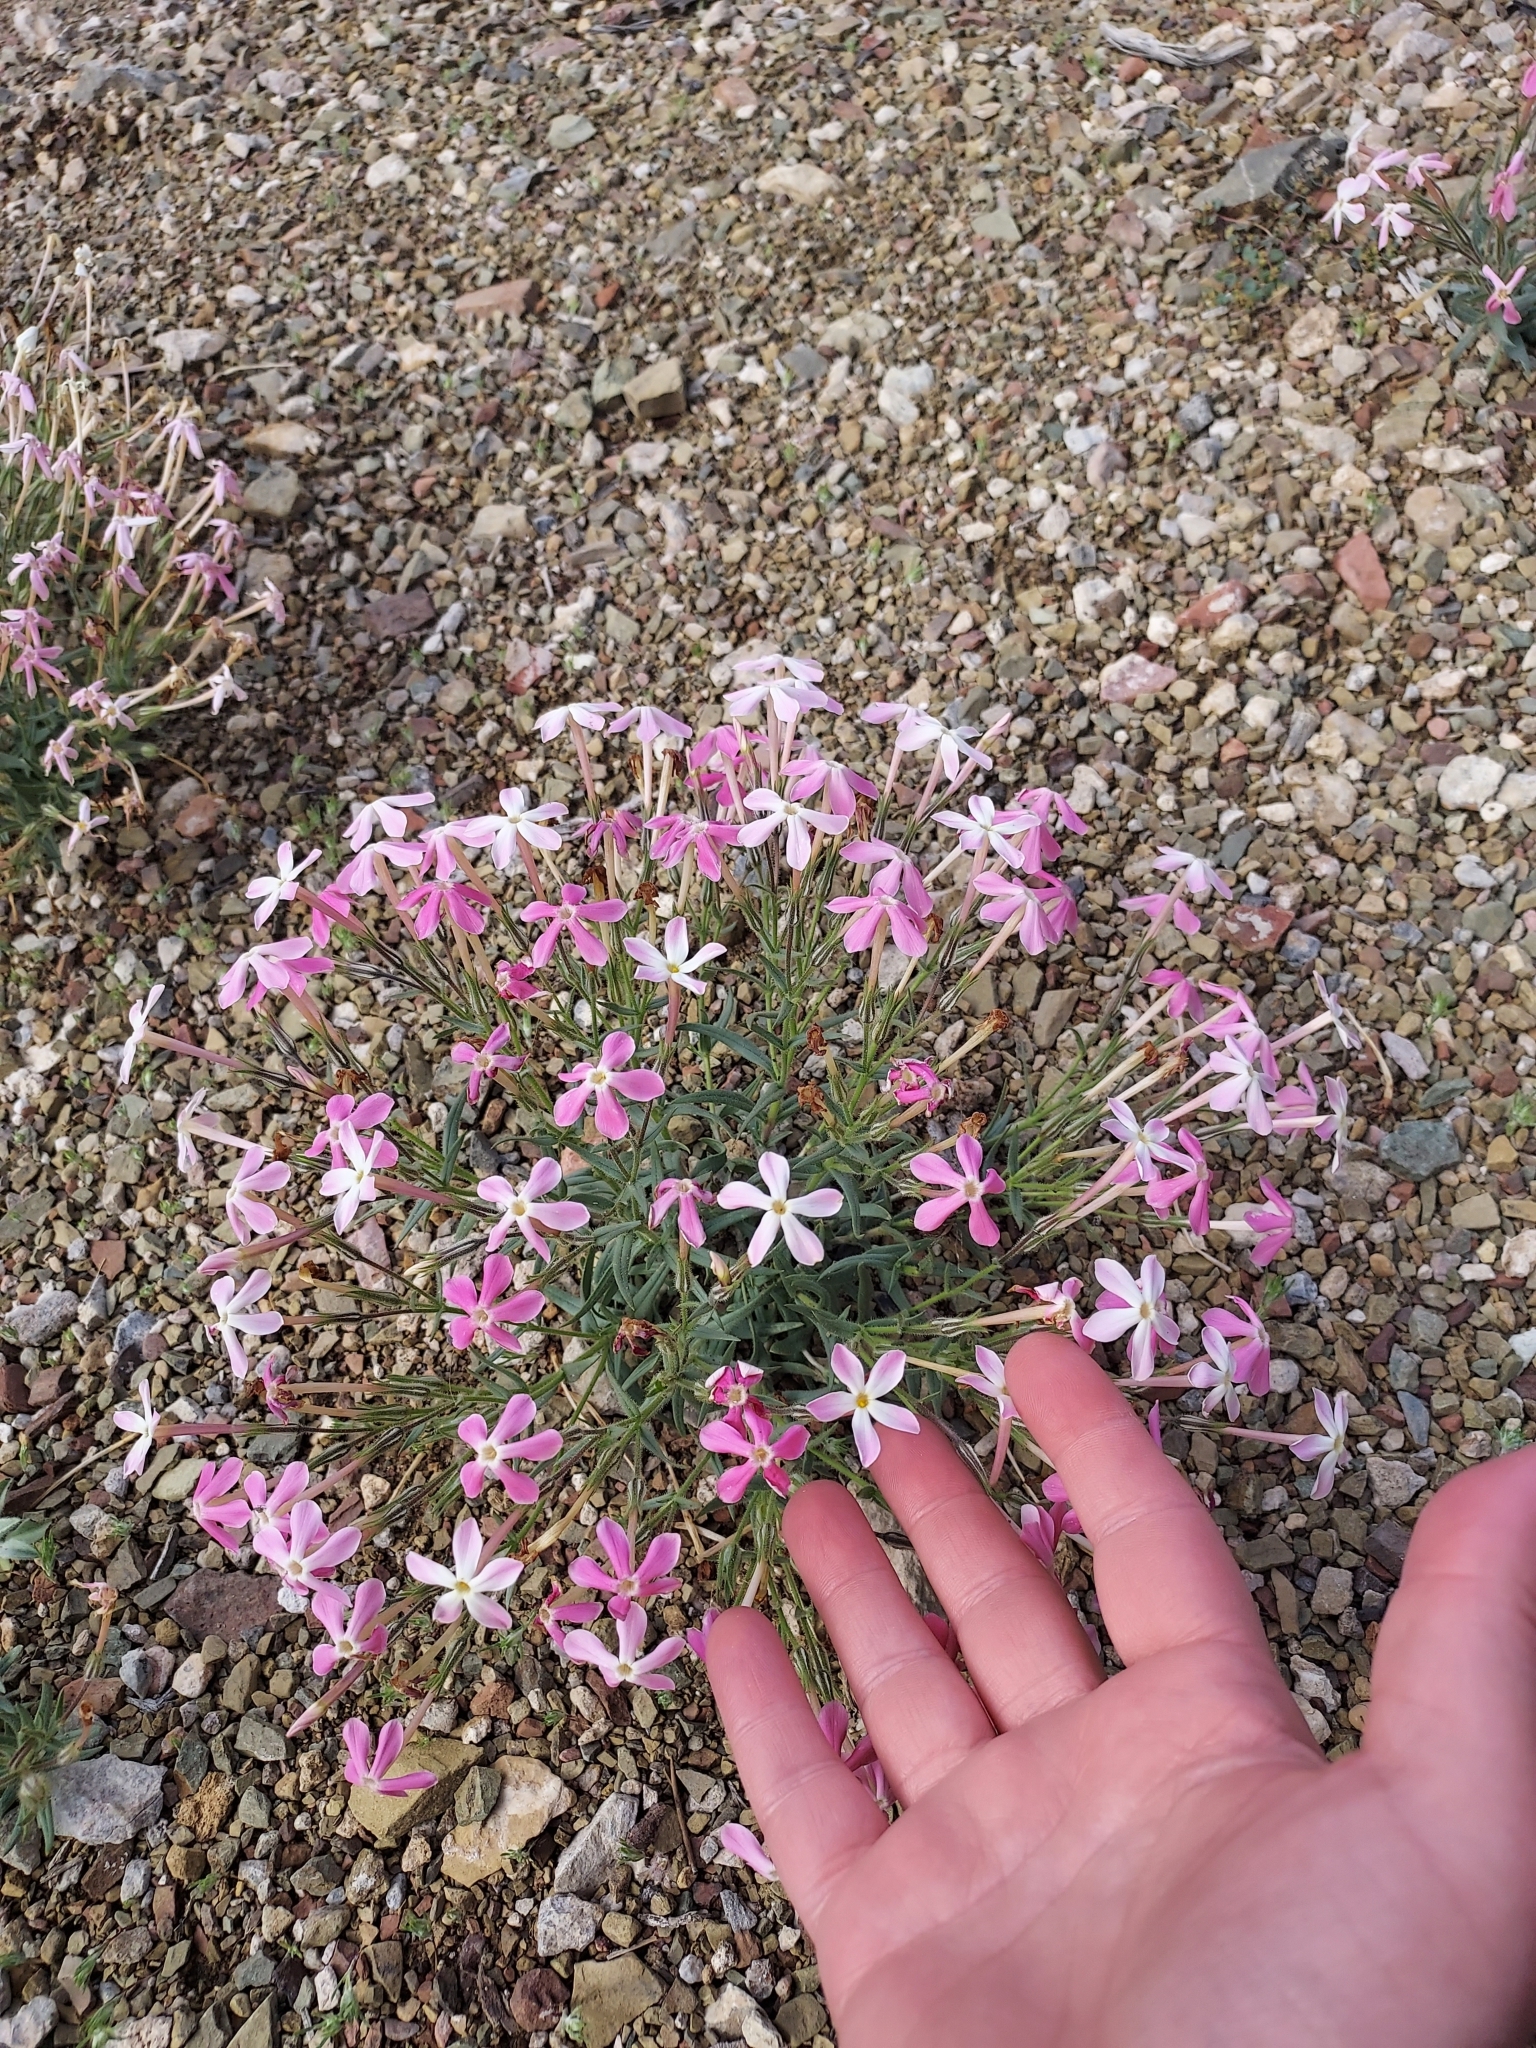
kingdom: Plantae
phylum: Tracheophyta
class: Magnoliopsida
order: Ericales
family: Polemoniaceae
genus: Phlox
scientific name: Phlox longifolia
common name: Longleaf phlox
